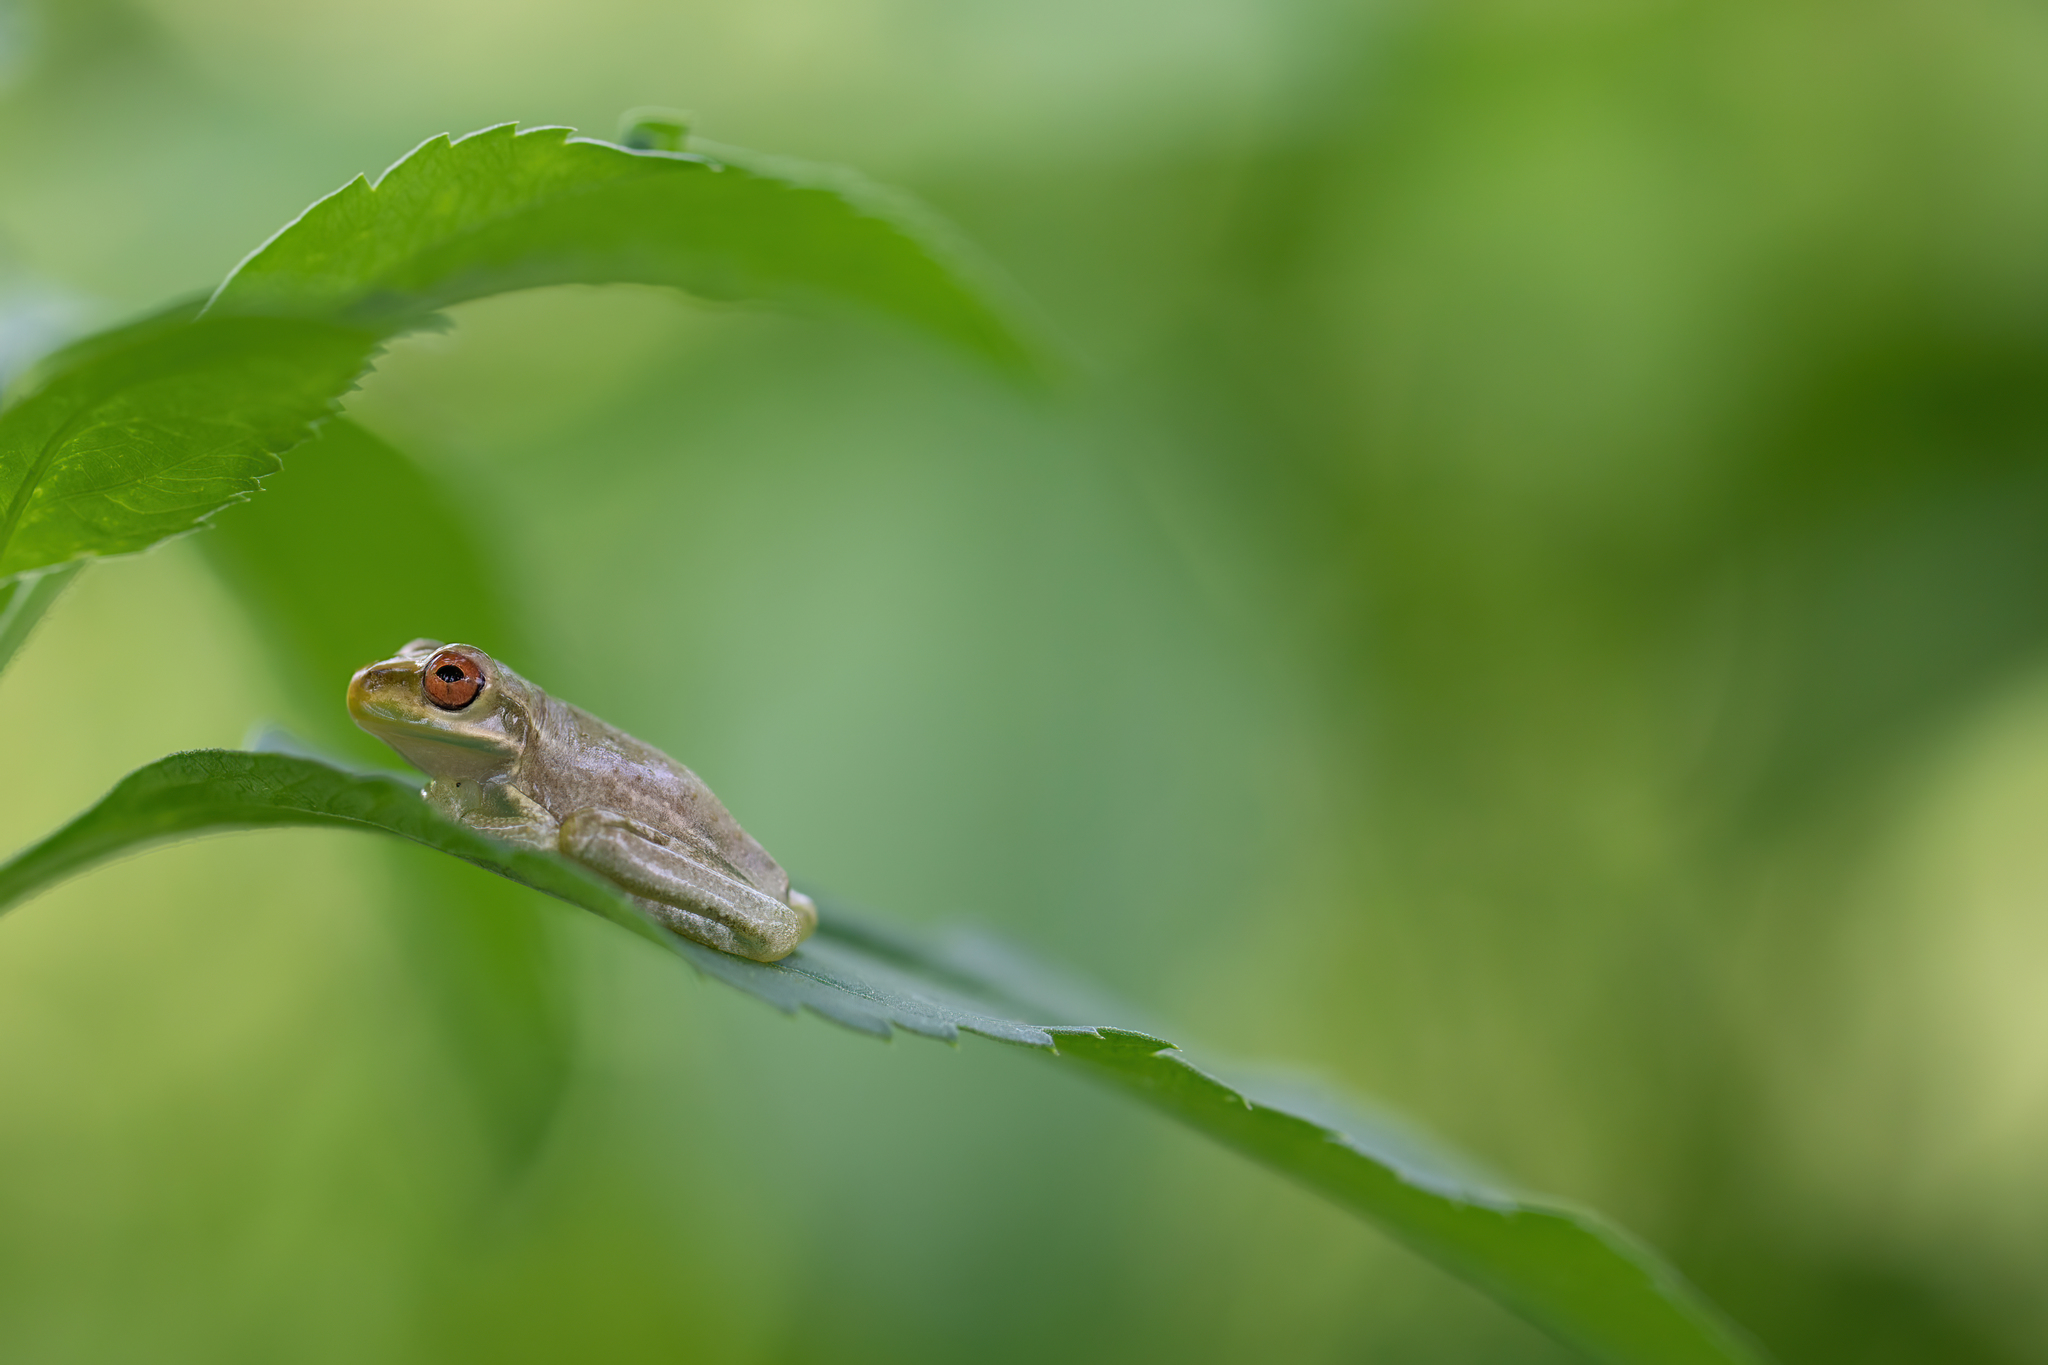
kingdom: Animalia
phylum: Chordata
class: Amphibia
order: Anura
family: Hylidae
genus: Osteopilus
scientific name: Osteopilus septentrionalis
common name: Cuban treefrog
